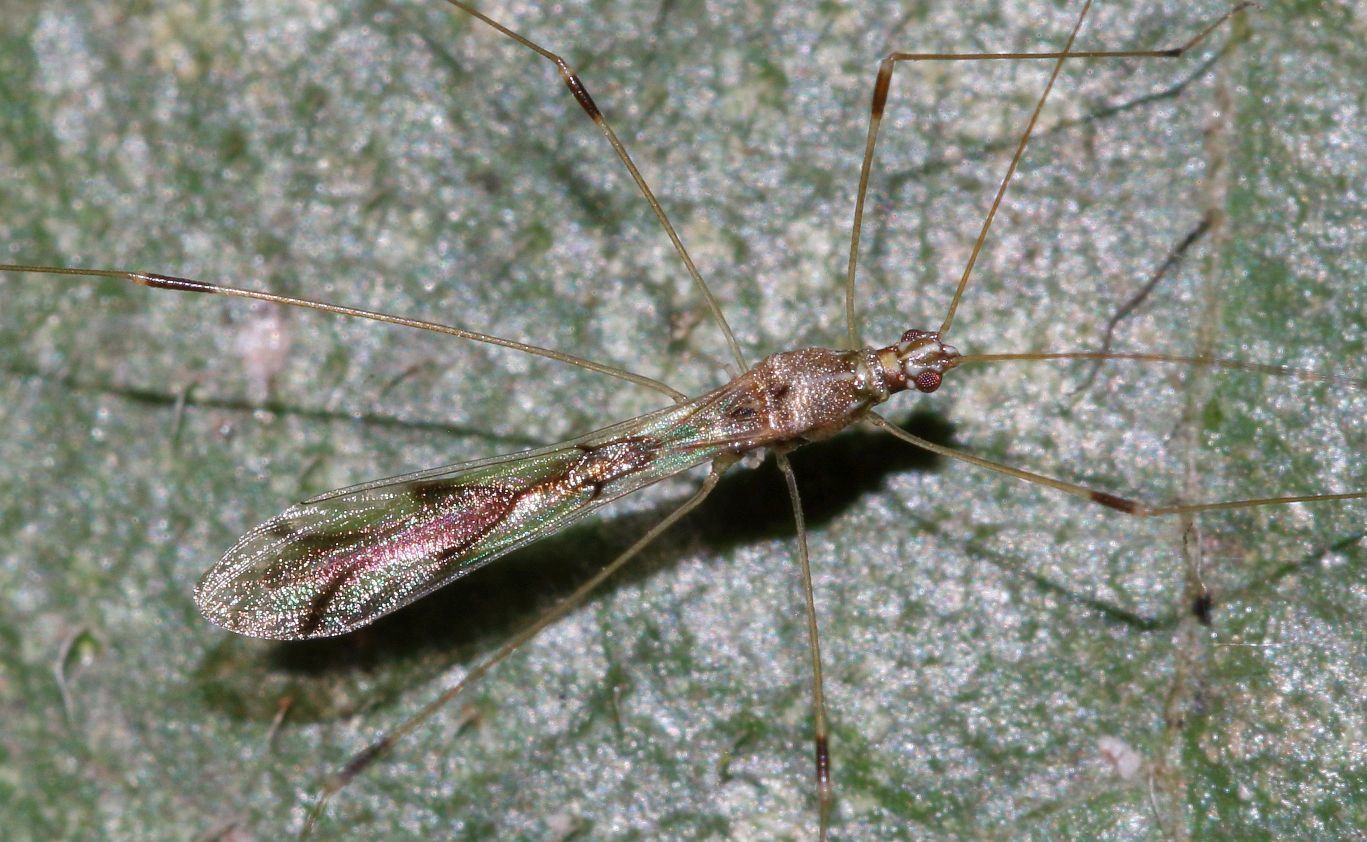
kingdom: Animalia
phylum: Arthropoda
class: Insecta
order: Hemiptera
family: Berytidae
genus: Neostusakia
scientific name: Neostusakia picticornis
